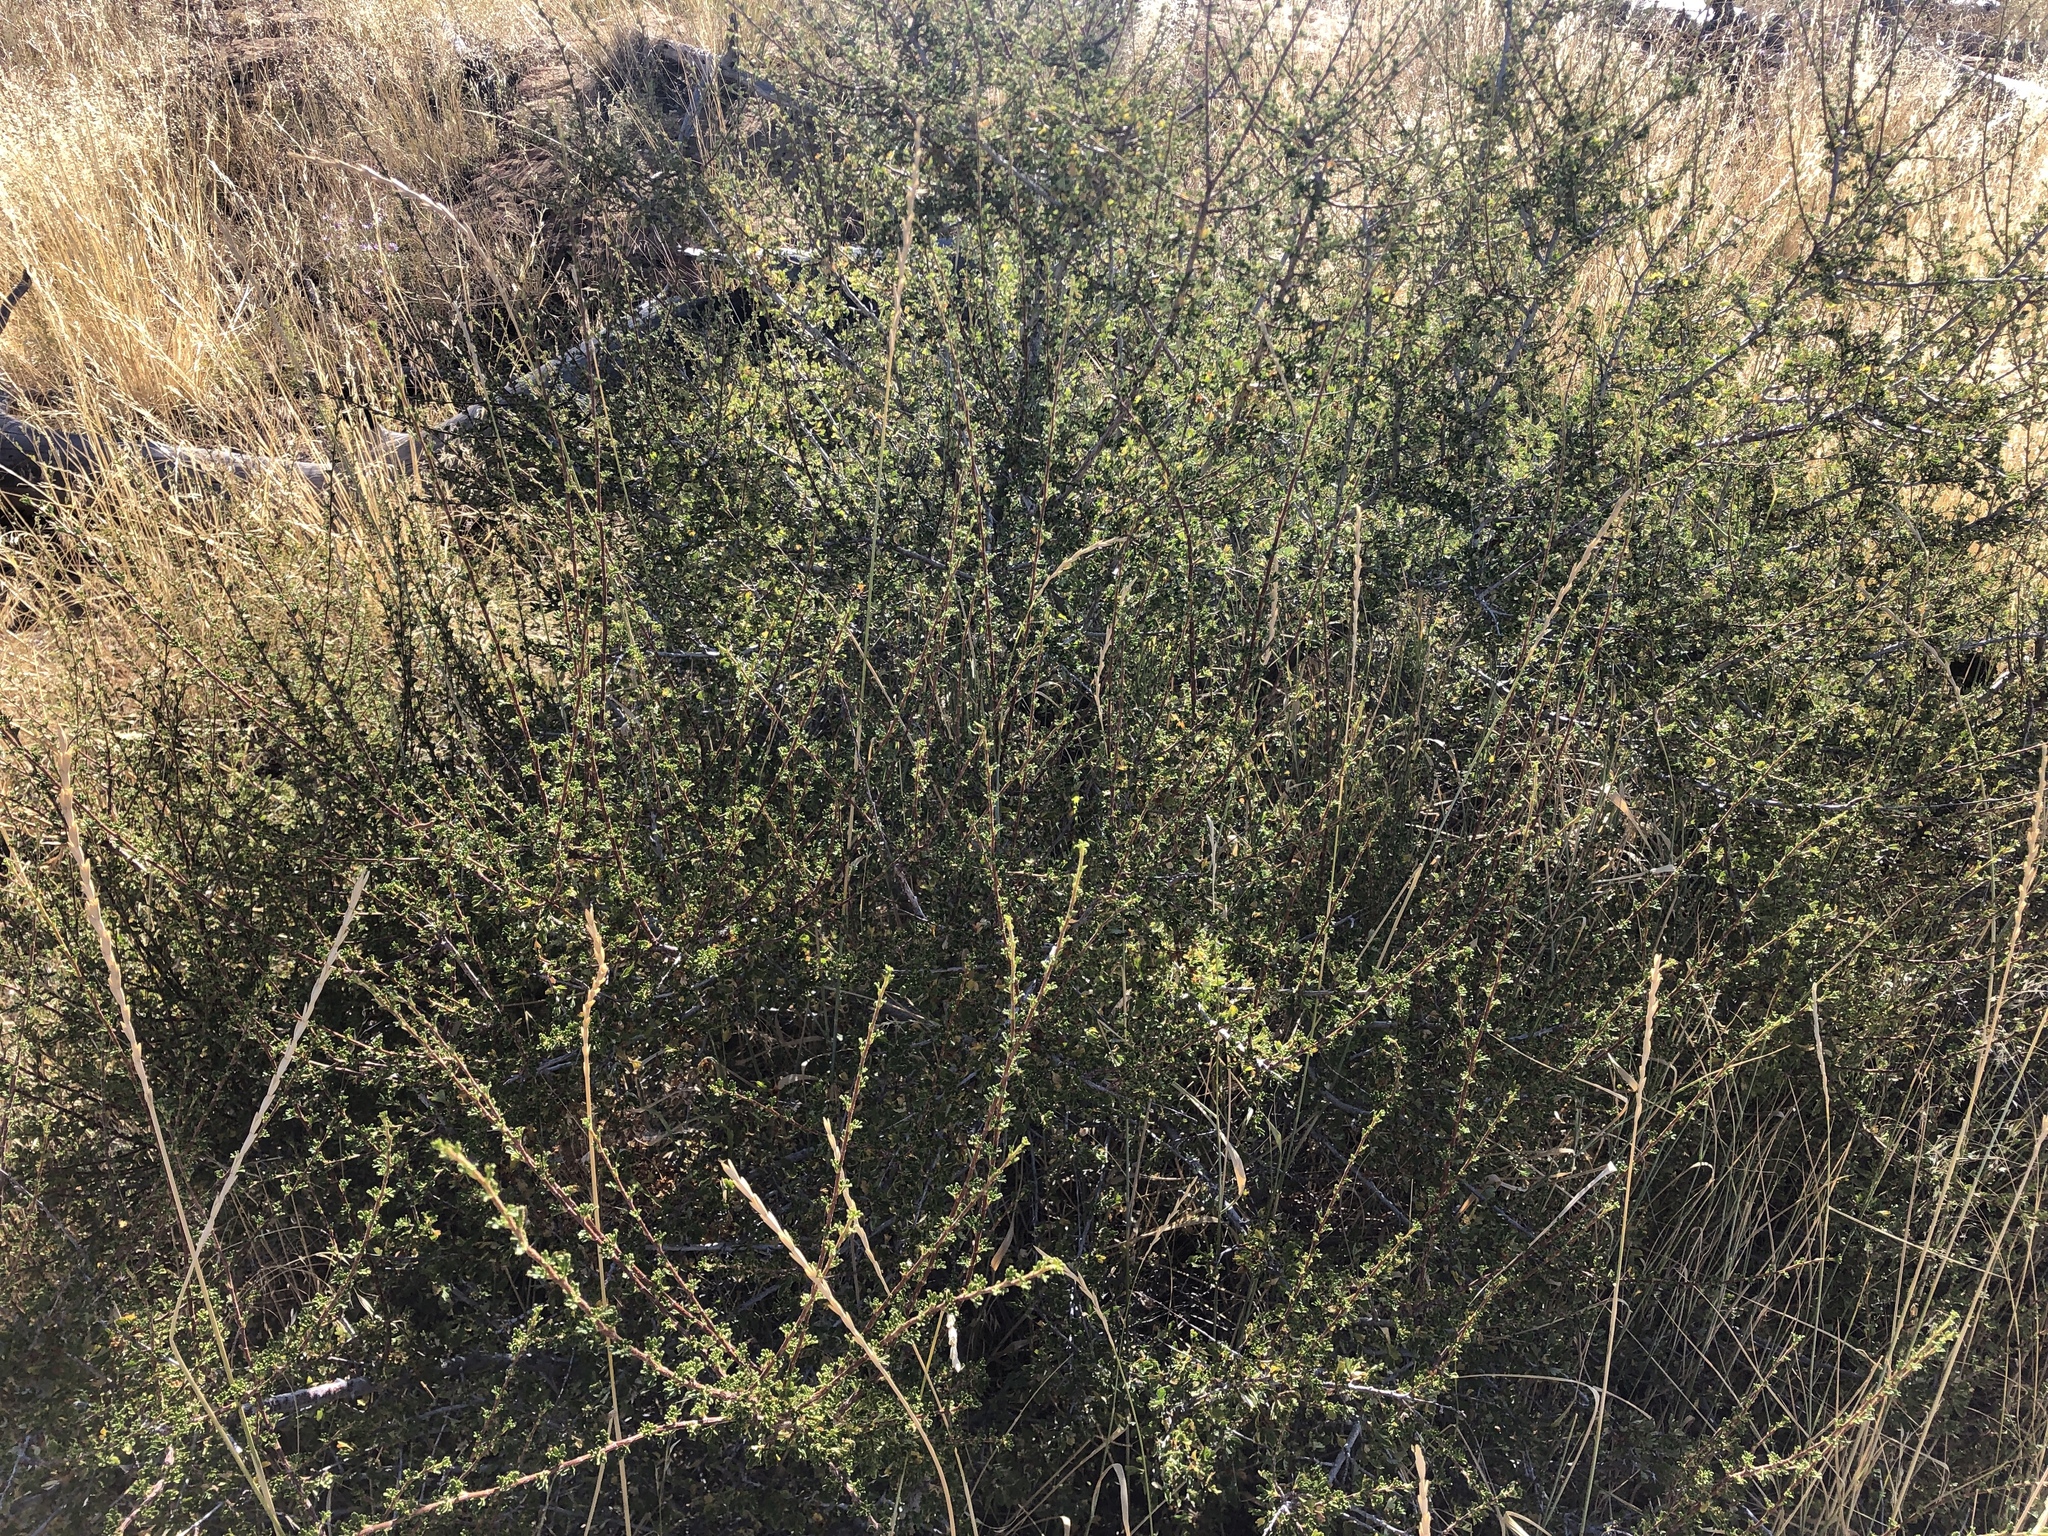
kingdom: Plantae
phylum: Tracheophyta
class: Magnoliopsida
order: Rosales
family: Rosaceae
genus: Purshia
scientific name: Purshia stansburiana
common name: Stansbury's cliffrose
